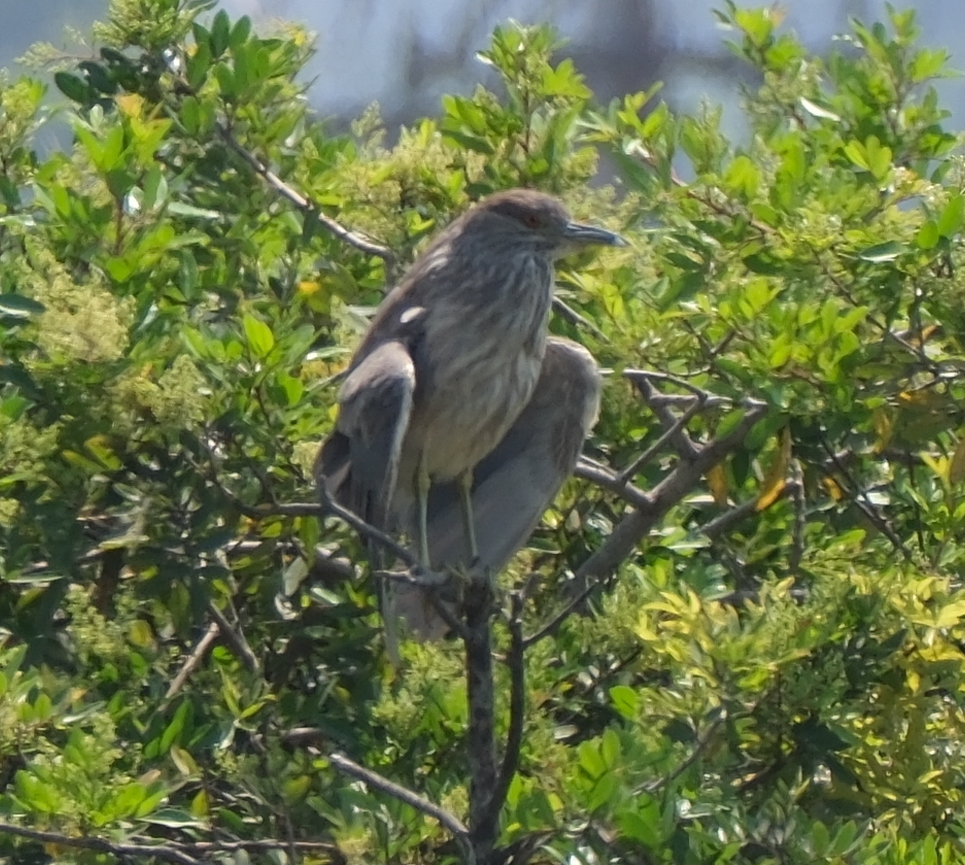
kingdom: Animalia
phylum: Chordata
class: Aves
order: Pelecaniformes
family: Ardeidae
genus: Nycticorax
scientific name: Nycticorax nycticorax
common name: Black-crowned night heron
